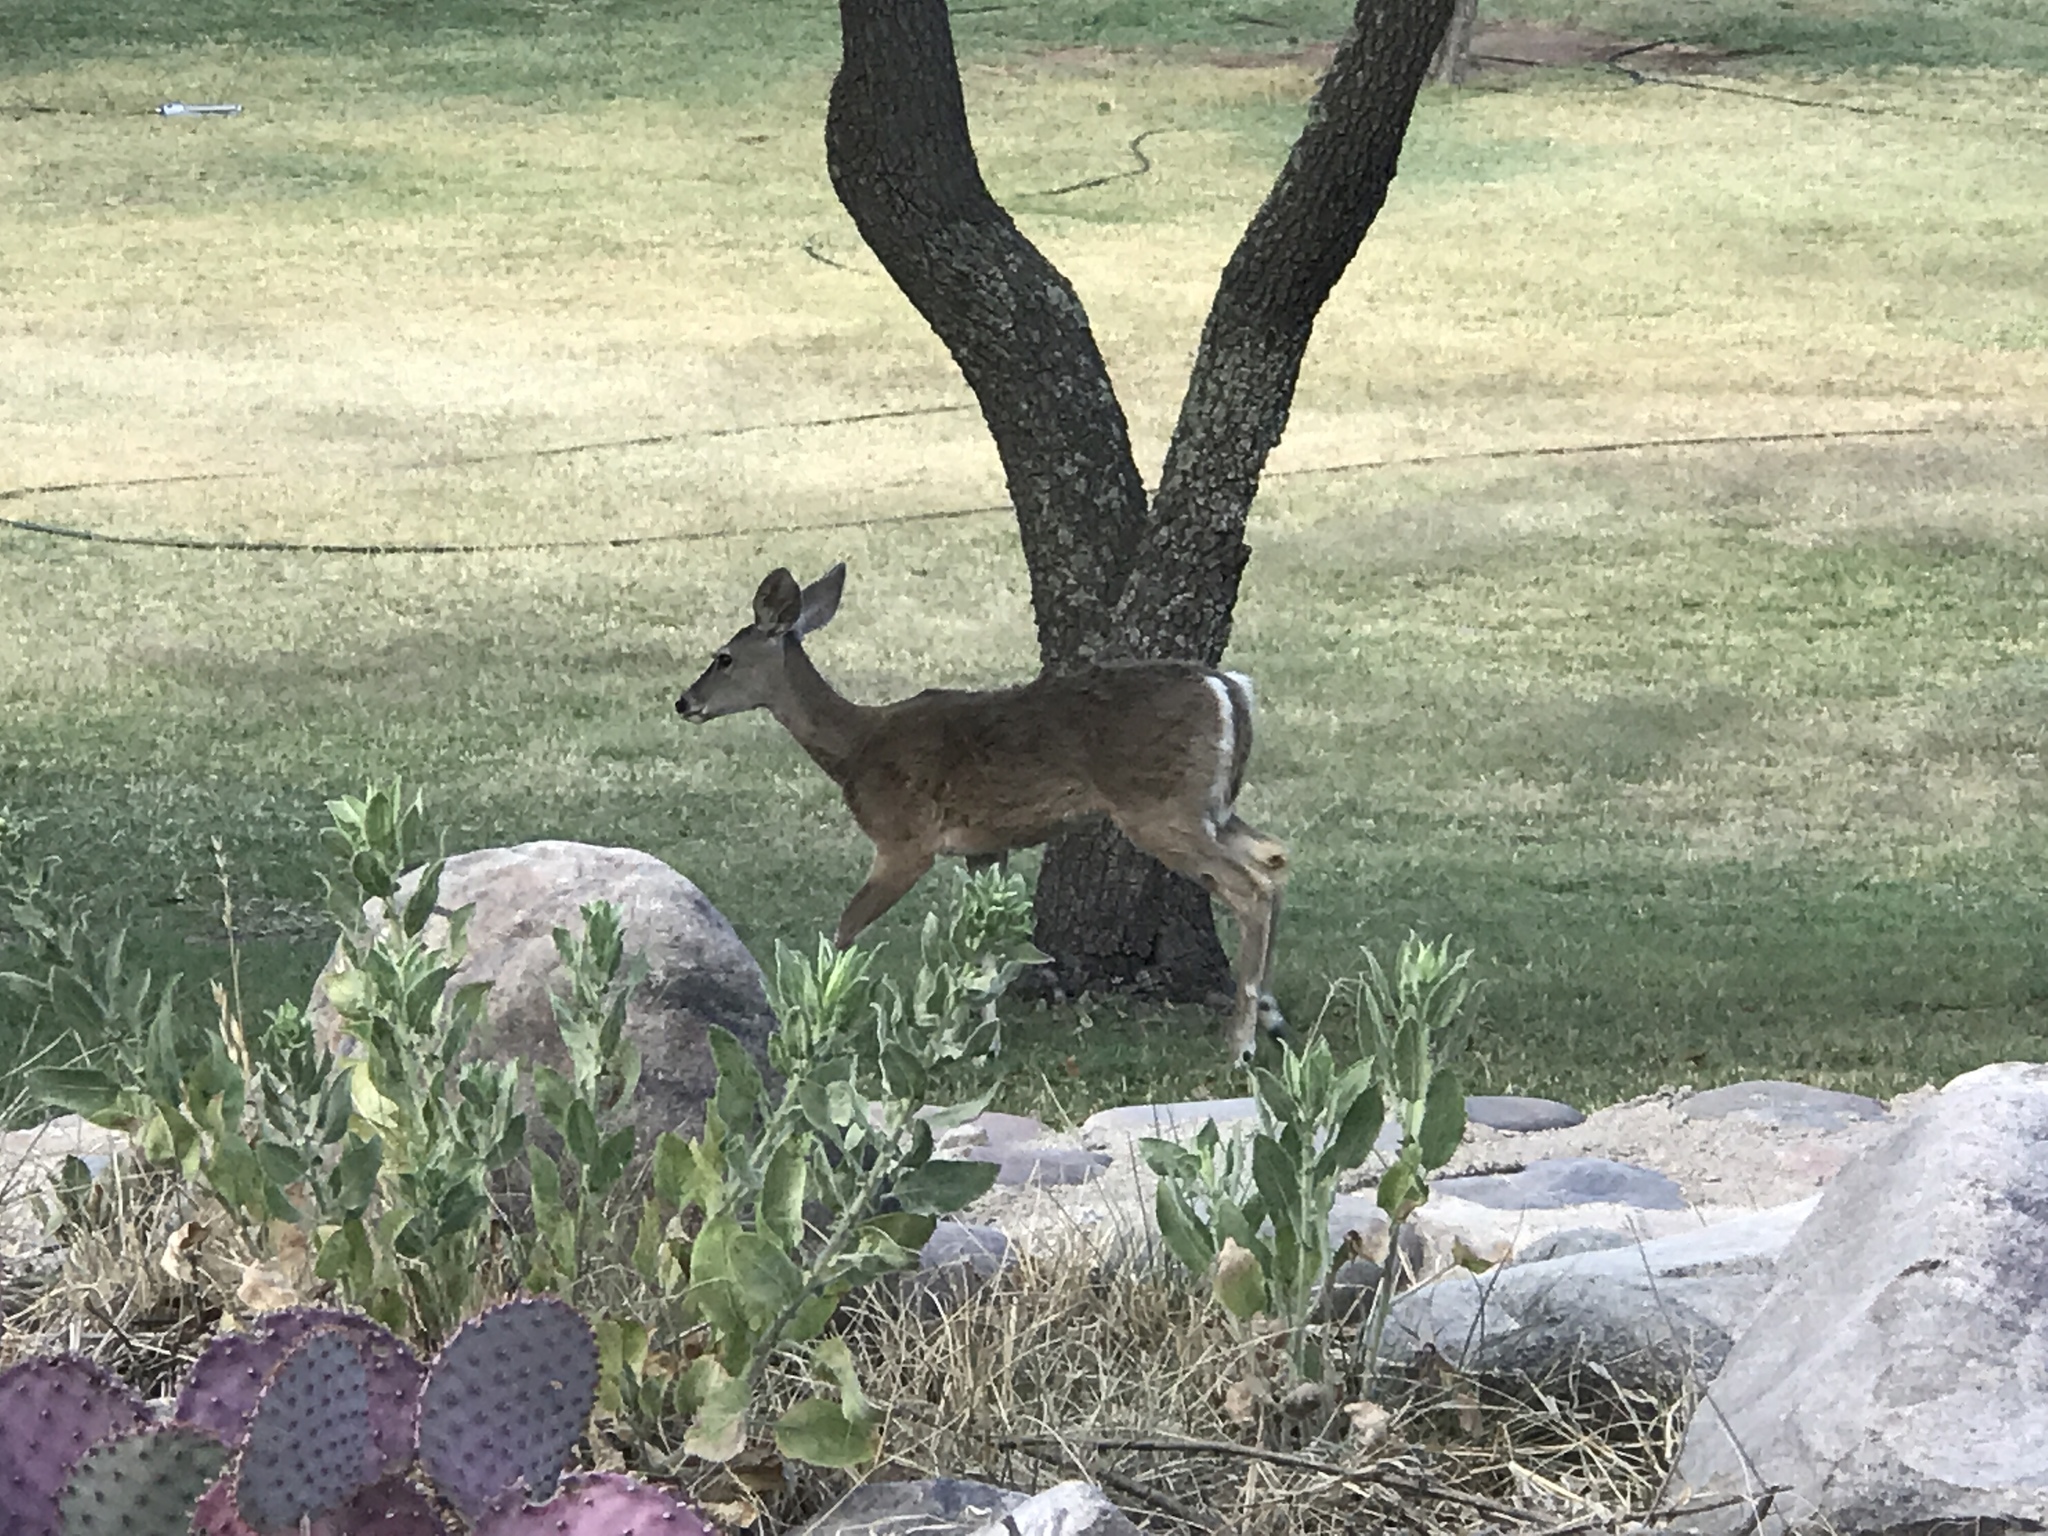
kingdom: Animalia
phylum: Chordata
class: Mammalia
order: Artiodactyla
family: Cervidae
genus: Odocoileus
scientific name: Odocoileus virginianus
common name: White-tailed deer
